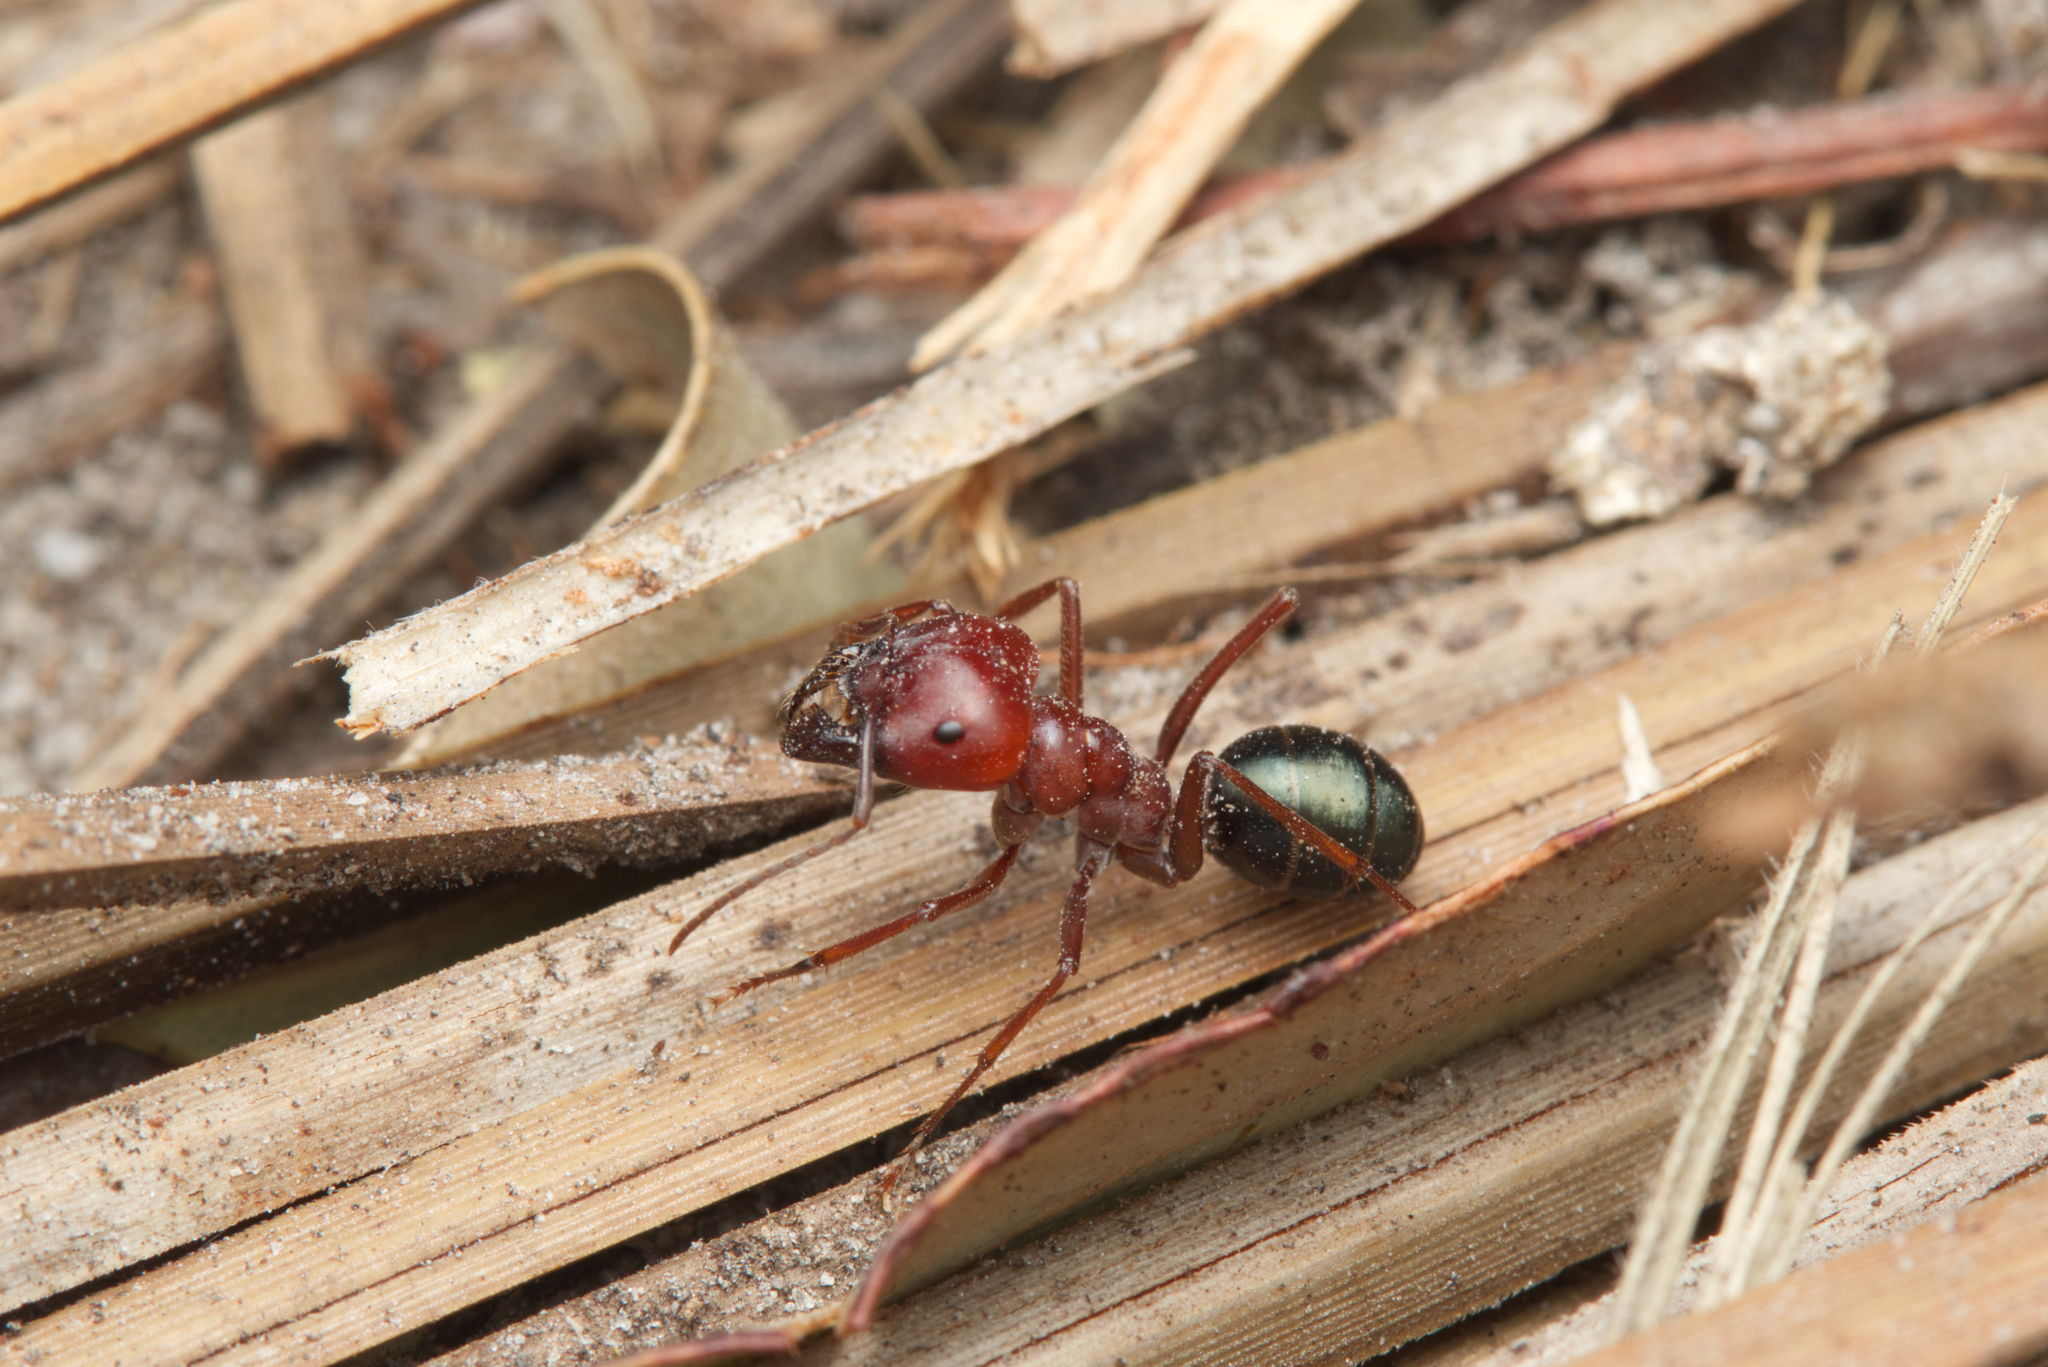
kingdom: Animalia
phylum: Arthropoda
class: Insecta
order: Hymenoptera
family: Formicidae
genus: Melophorus
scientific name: Melophorus rufoniger
